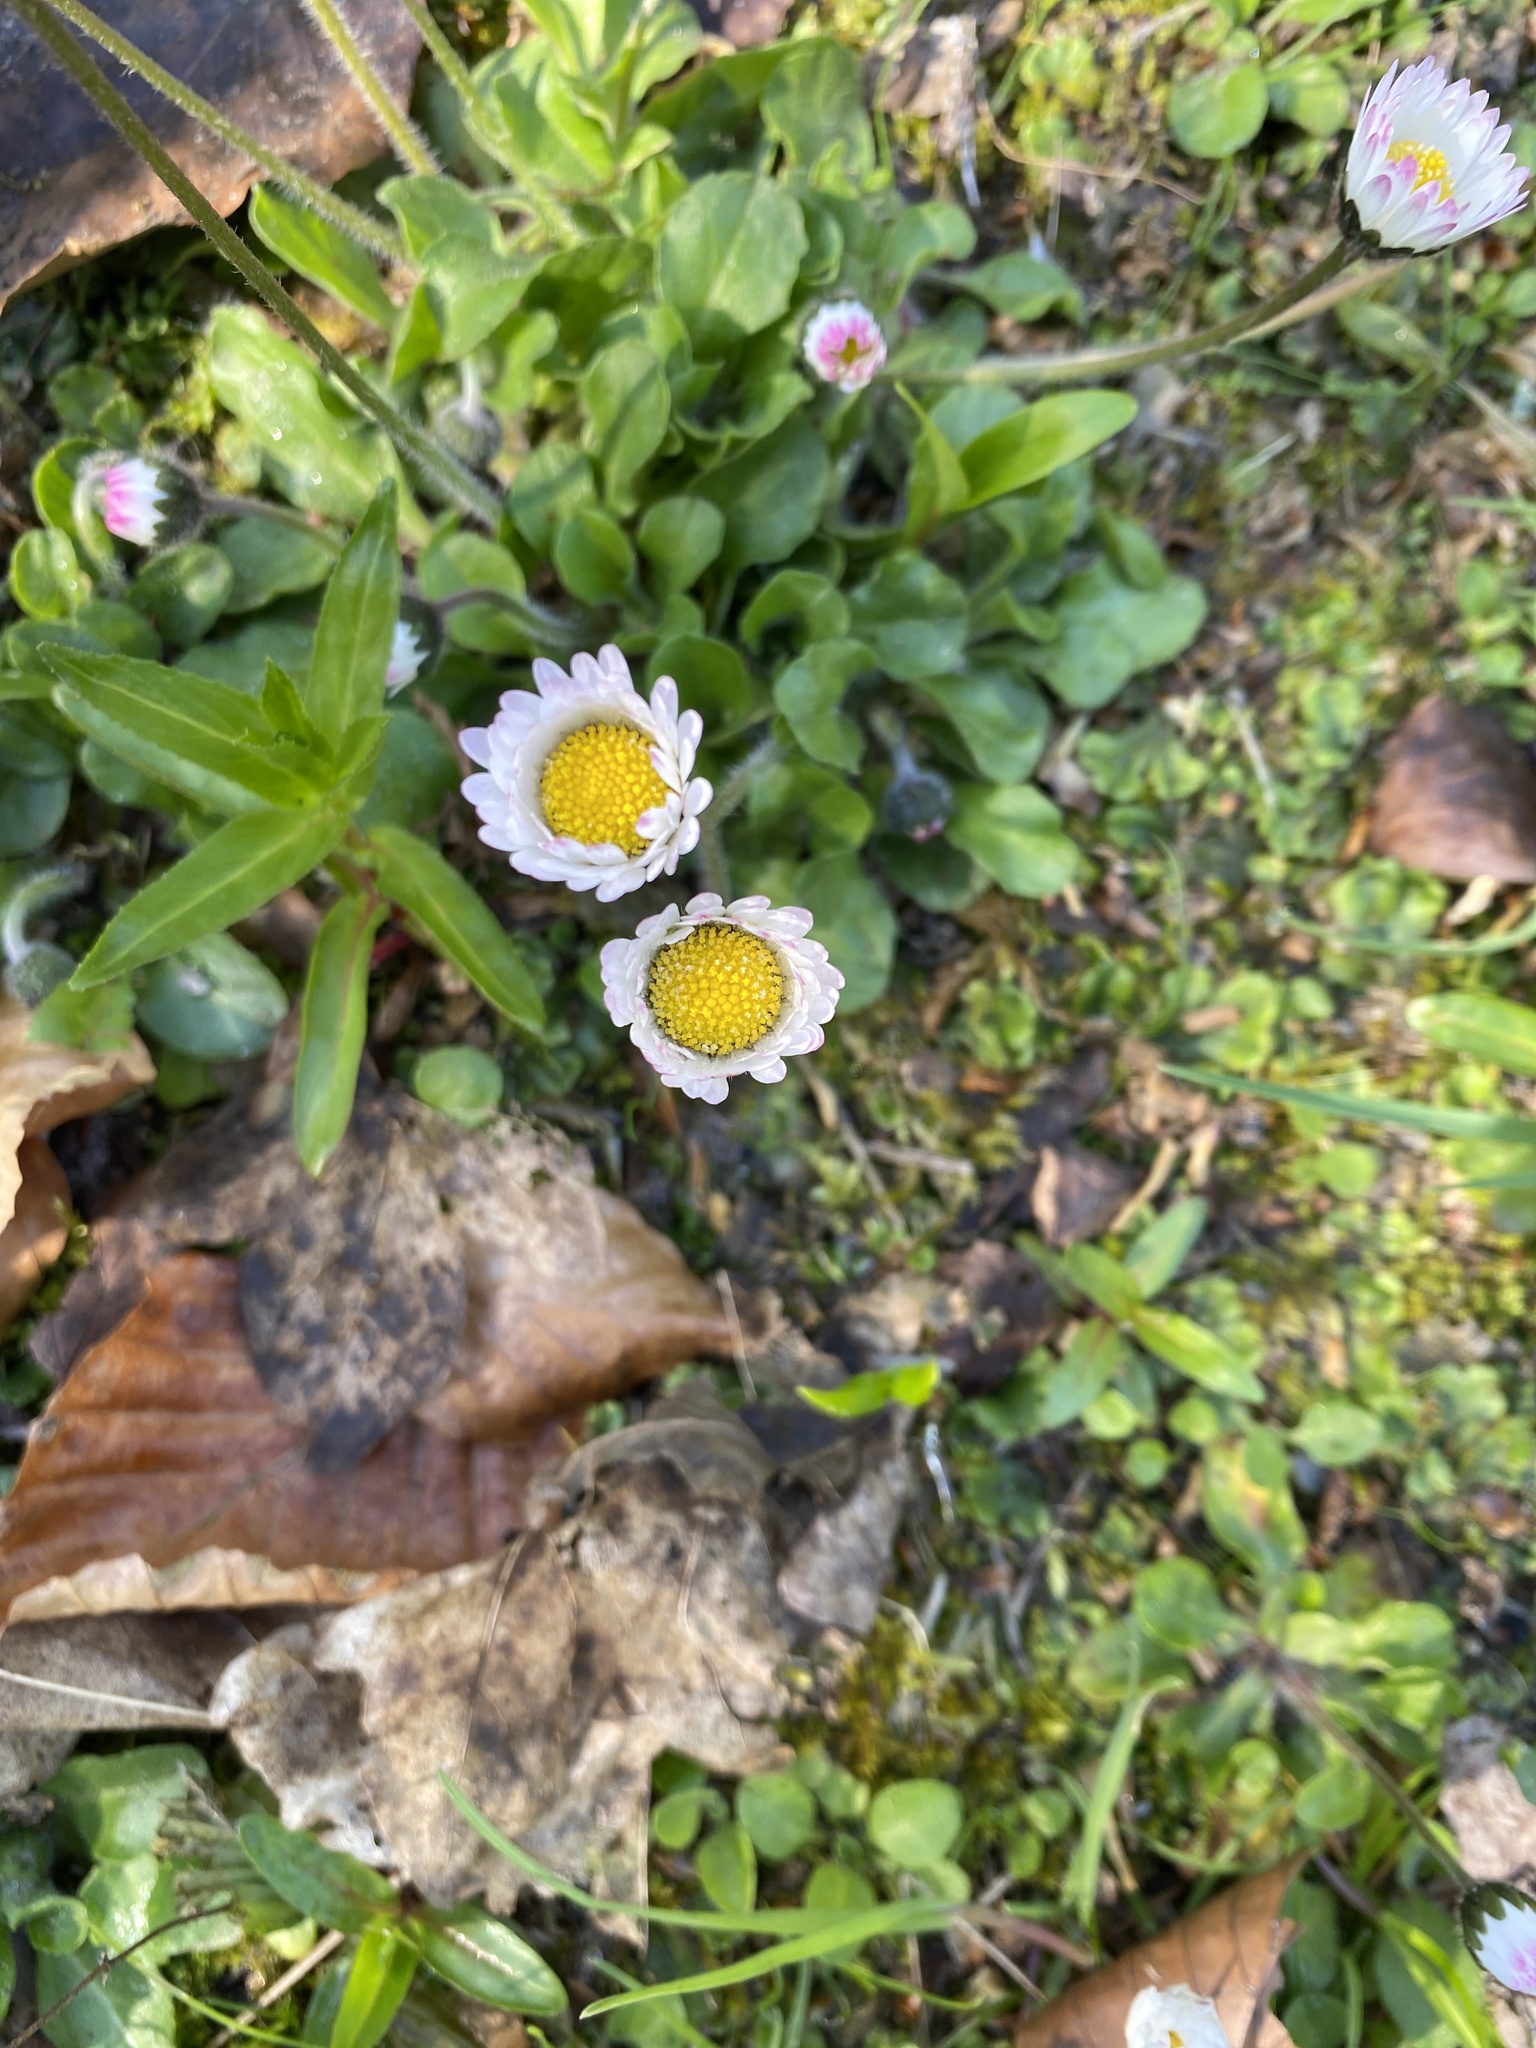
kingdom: Plantae
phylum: Tracheophyta
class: Magnoliopsida
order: Asterales
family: Asteraceae
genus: Bellis
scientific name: Bellis perennis
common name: Lawndaisy
